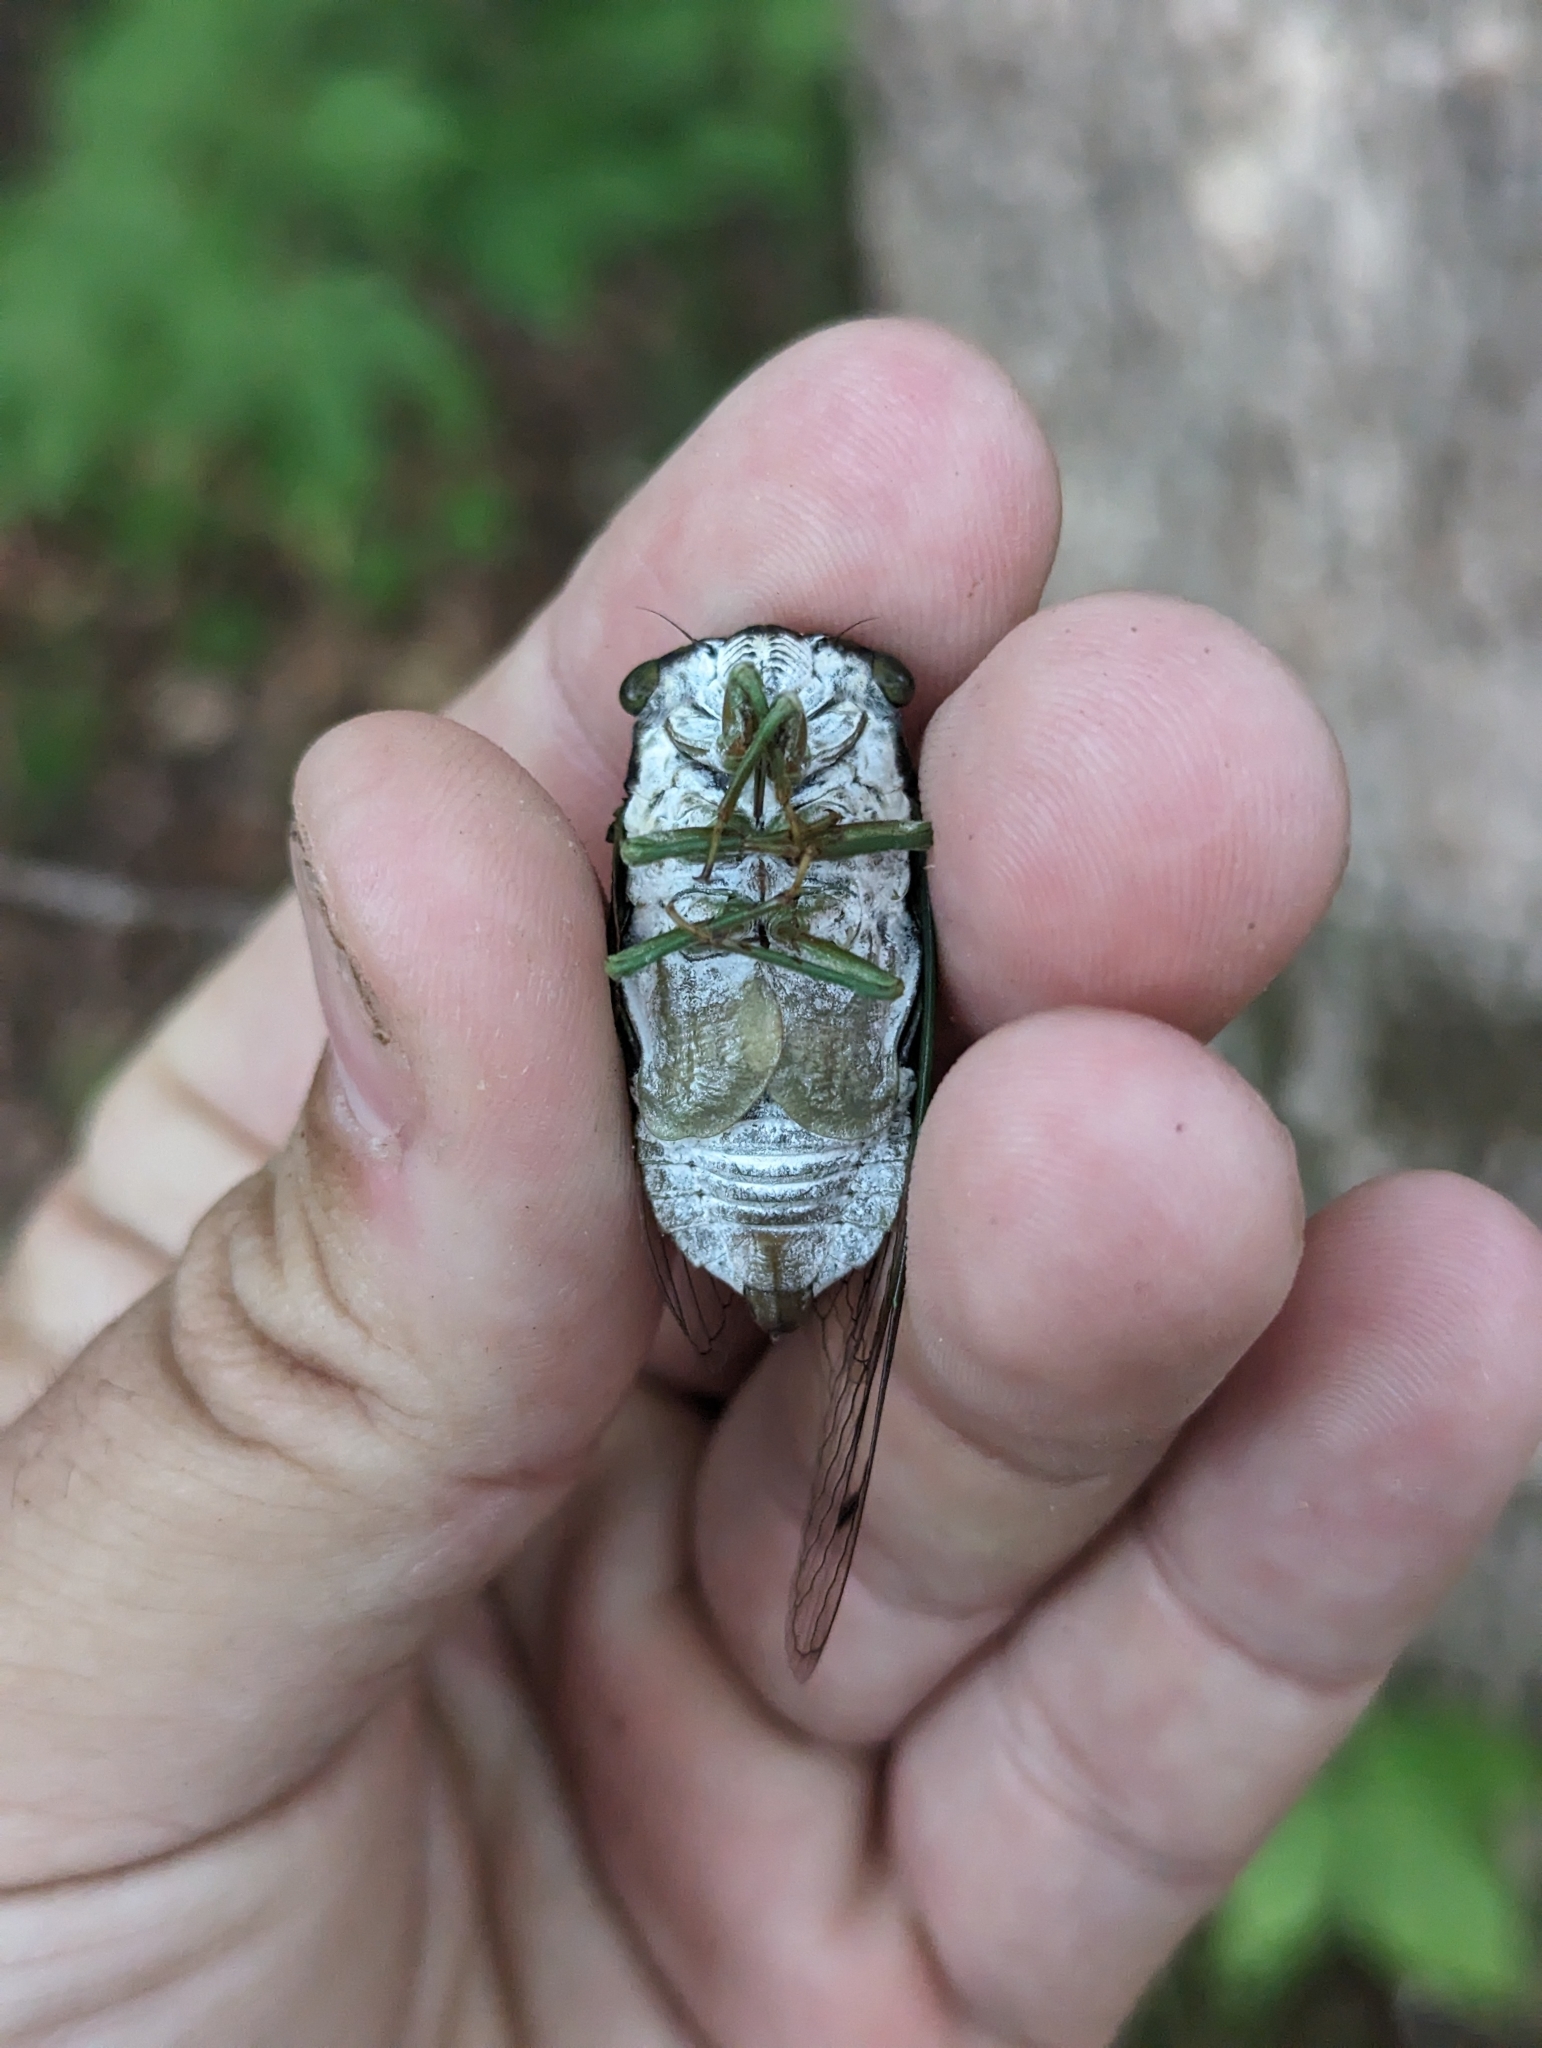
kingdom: Animalia
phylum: Arthropoda
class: Insecta
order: Hemiptera
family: Cicadidae
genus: Neotibicen
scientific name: Neotibicen tibicen
